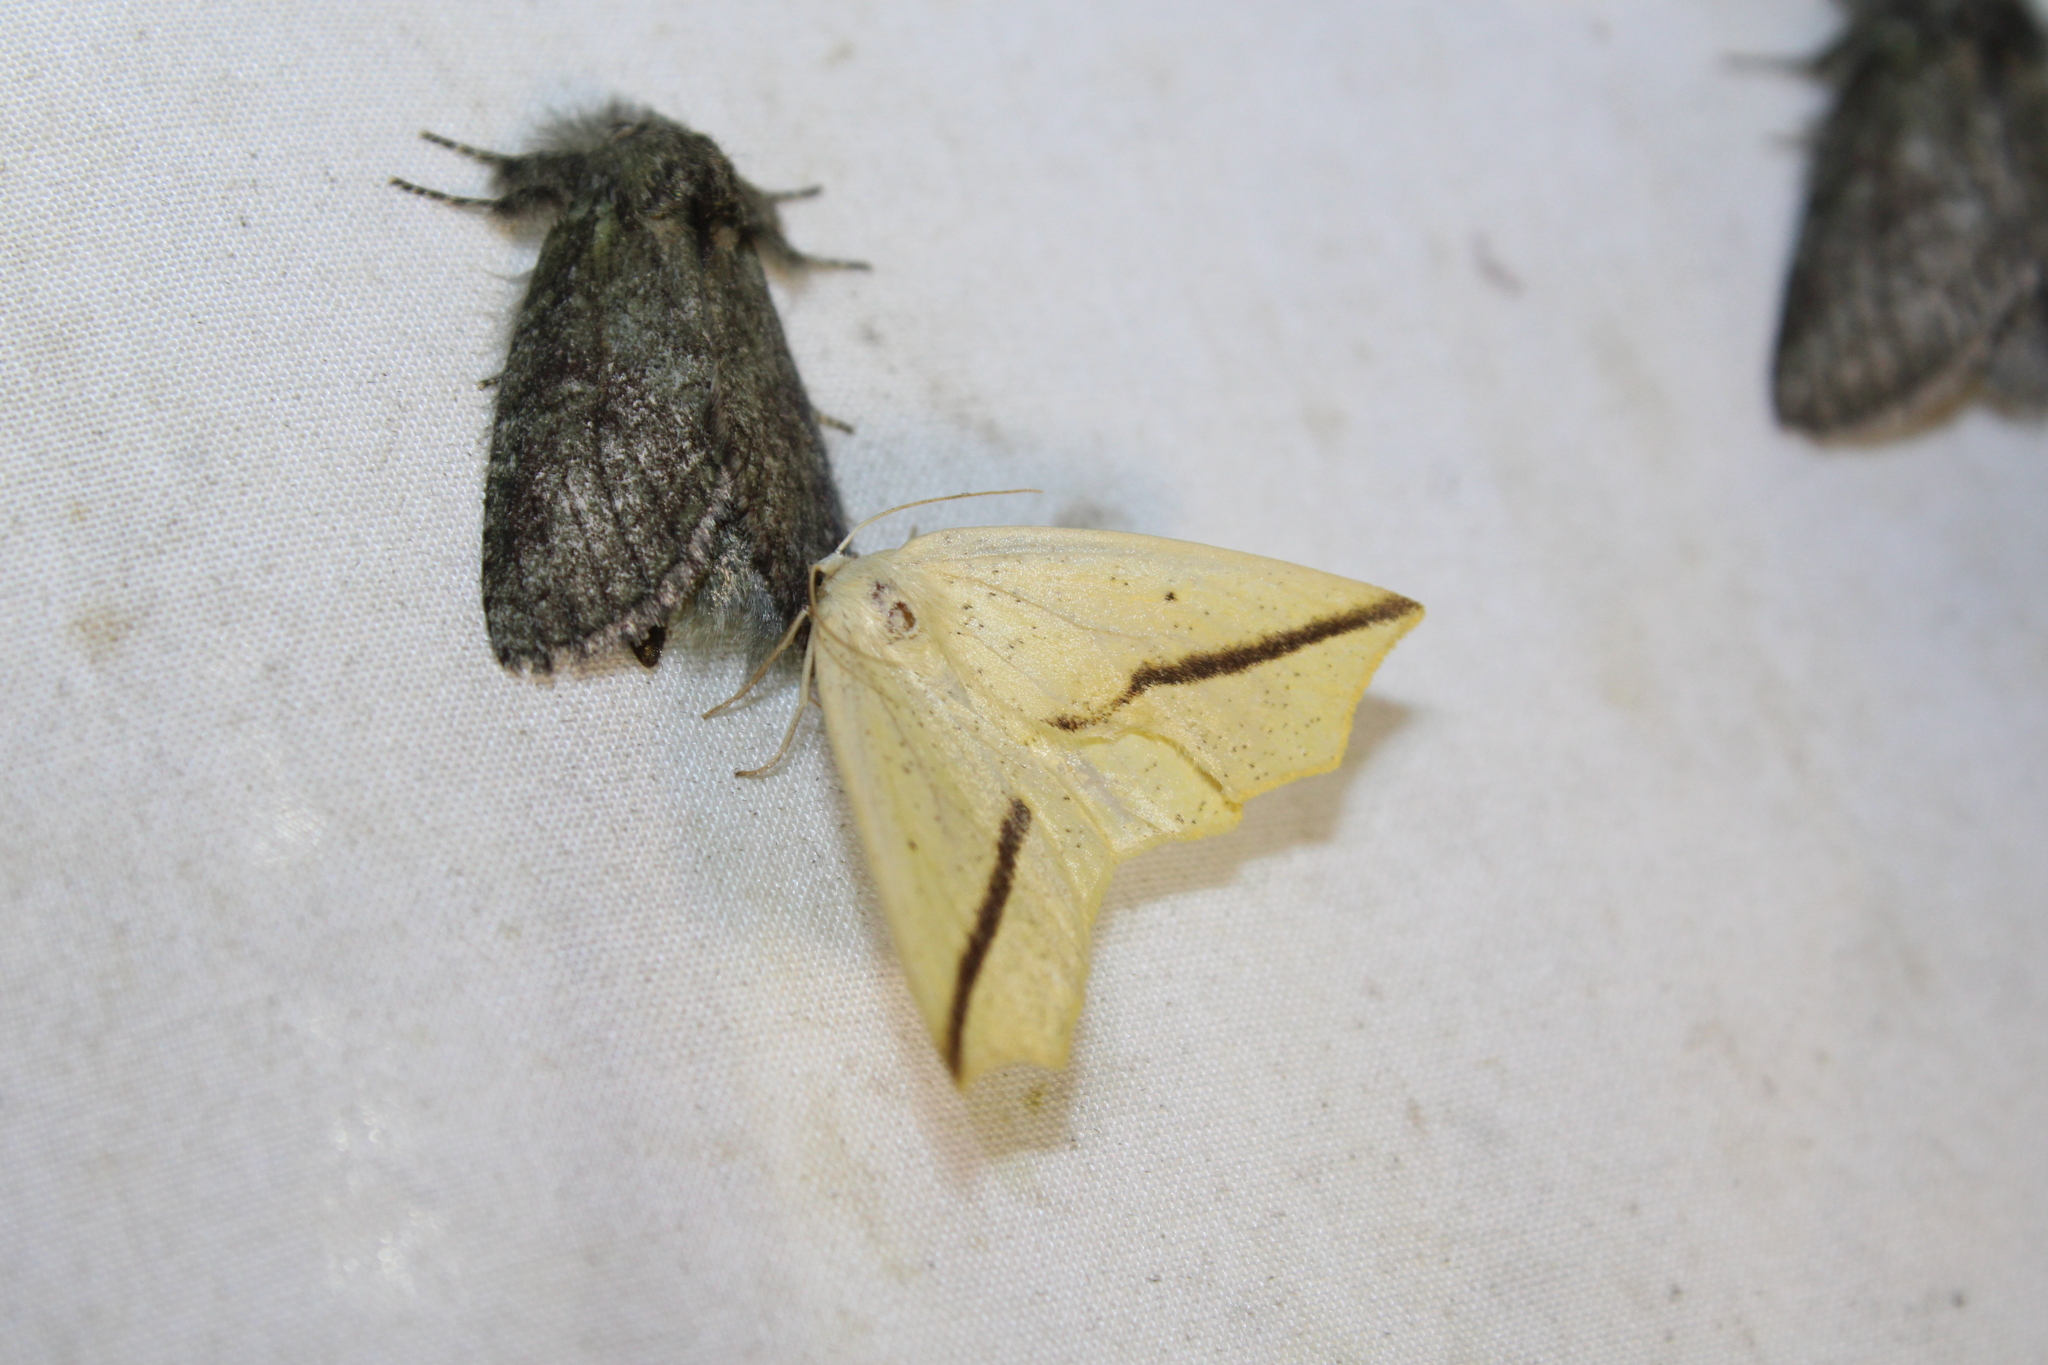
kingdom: Animalia
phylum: Arthropoda
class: Insecta
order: Lepidoptera
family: Geometridae
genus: Tetracis
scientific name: Tetracis crocallata
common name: Yellow slant-line
